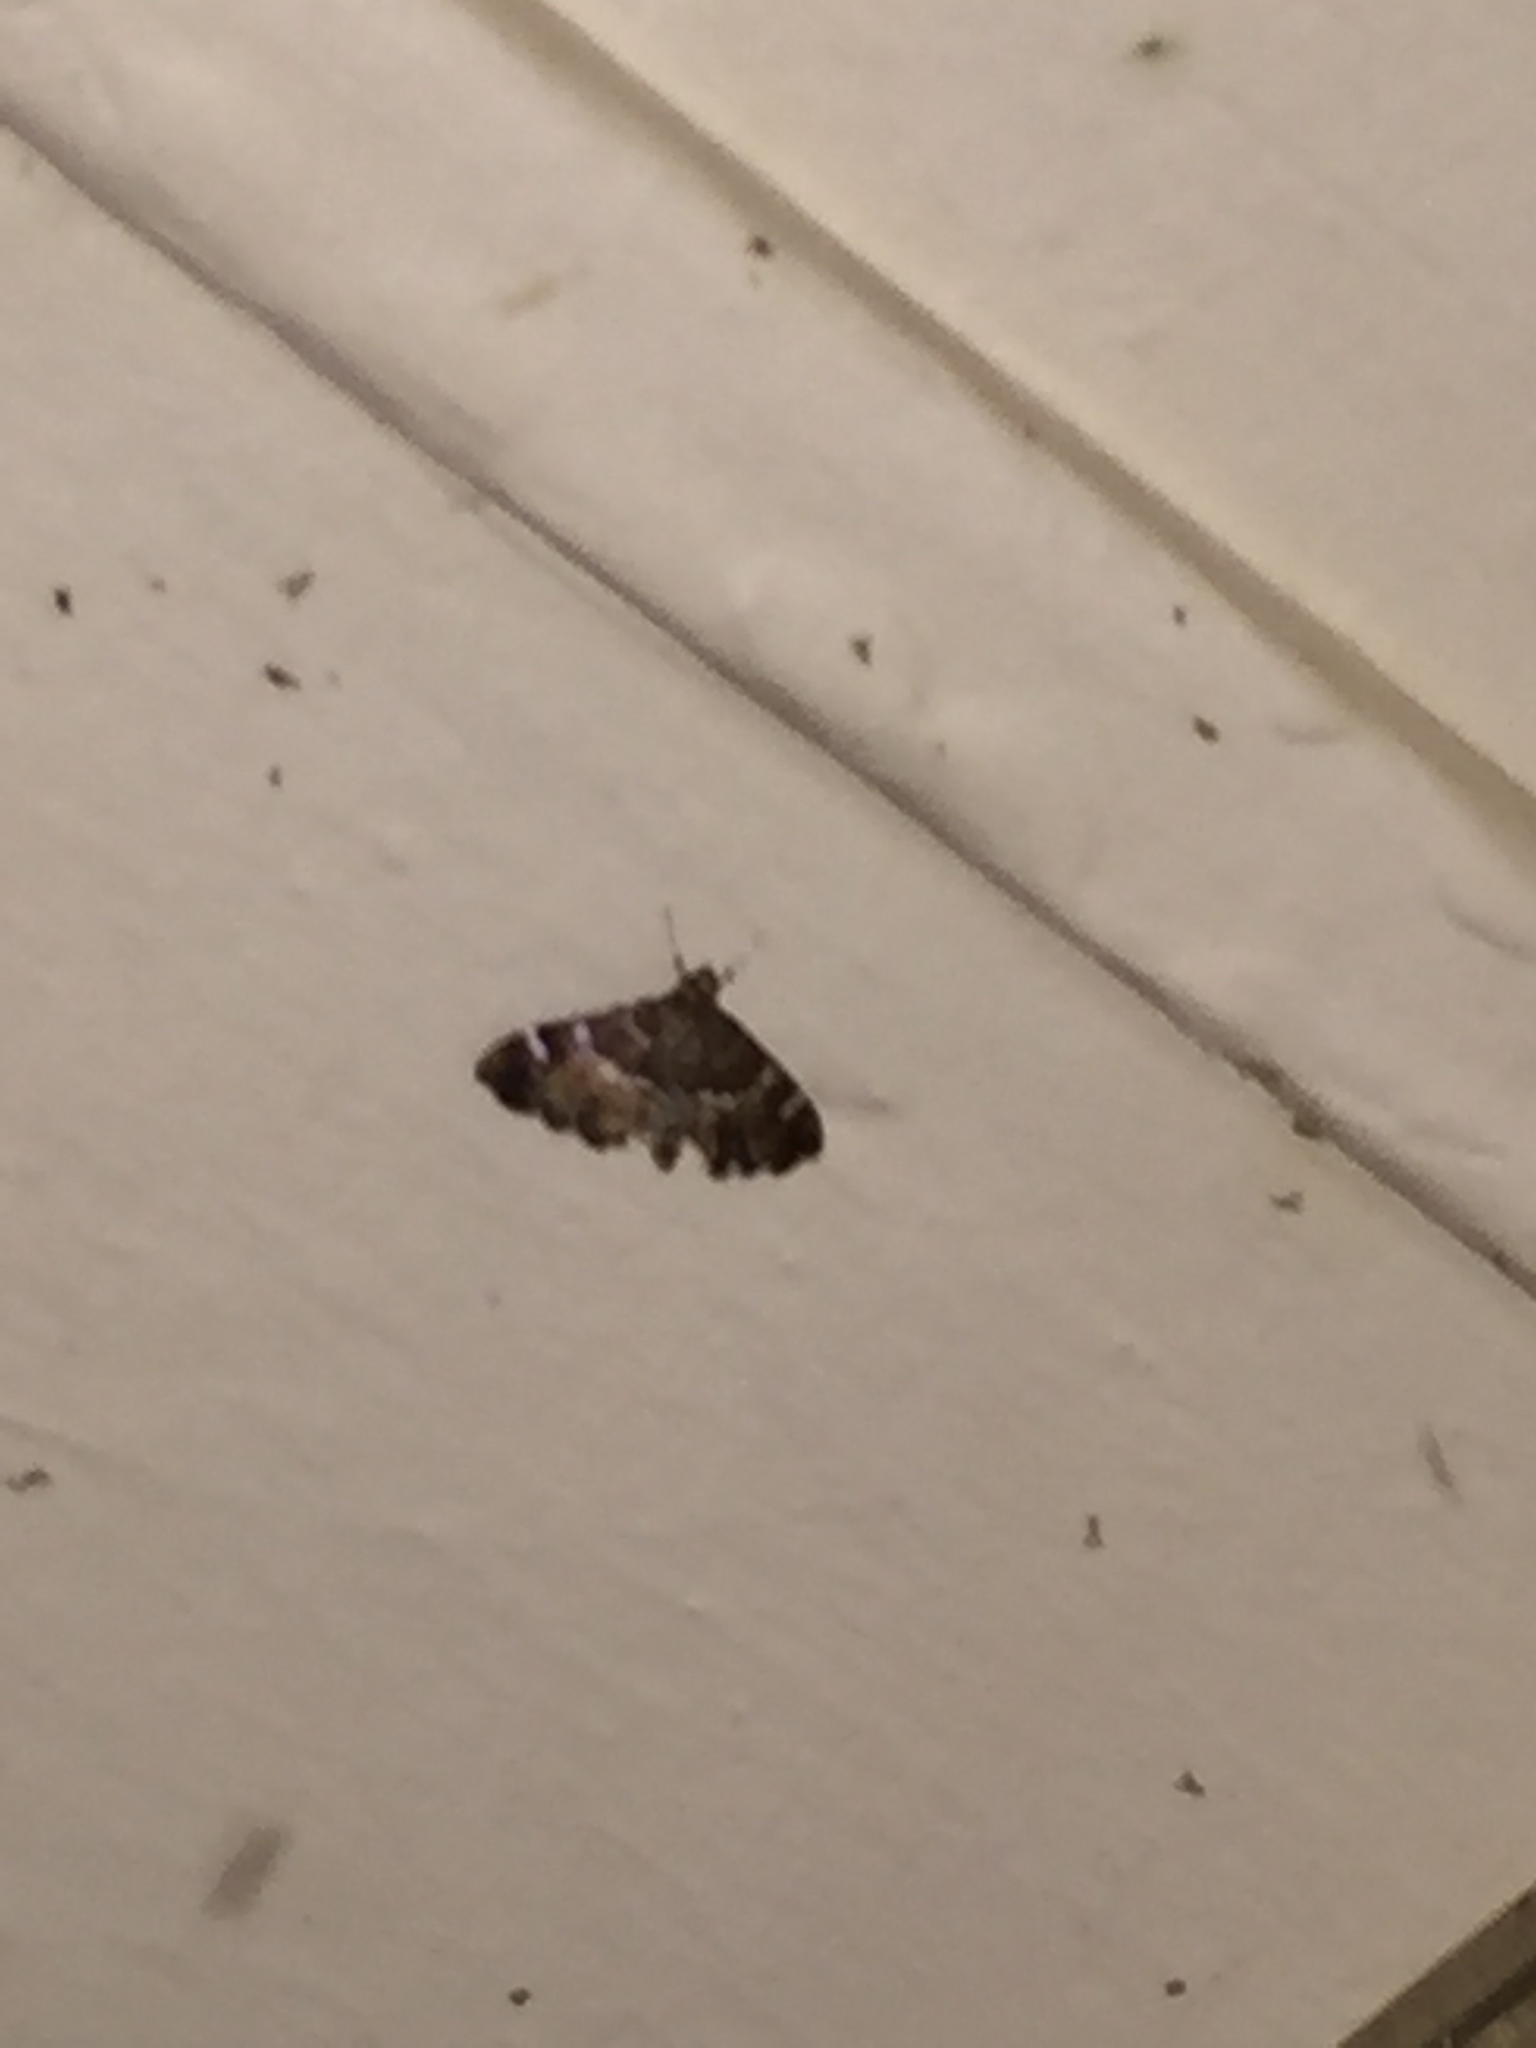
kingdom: Animalia
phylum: Arthropoda
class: Insecta
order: Lepidoptera
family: Crambidae
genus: Hymenia
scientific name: Hymenia perspectalis
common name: Spotted beet webworm
